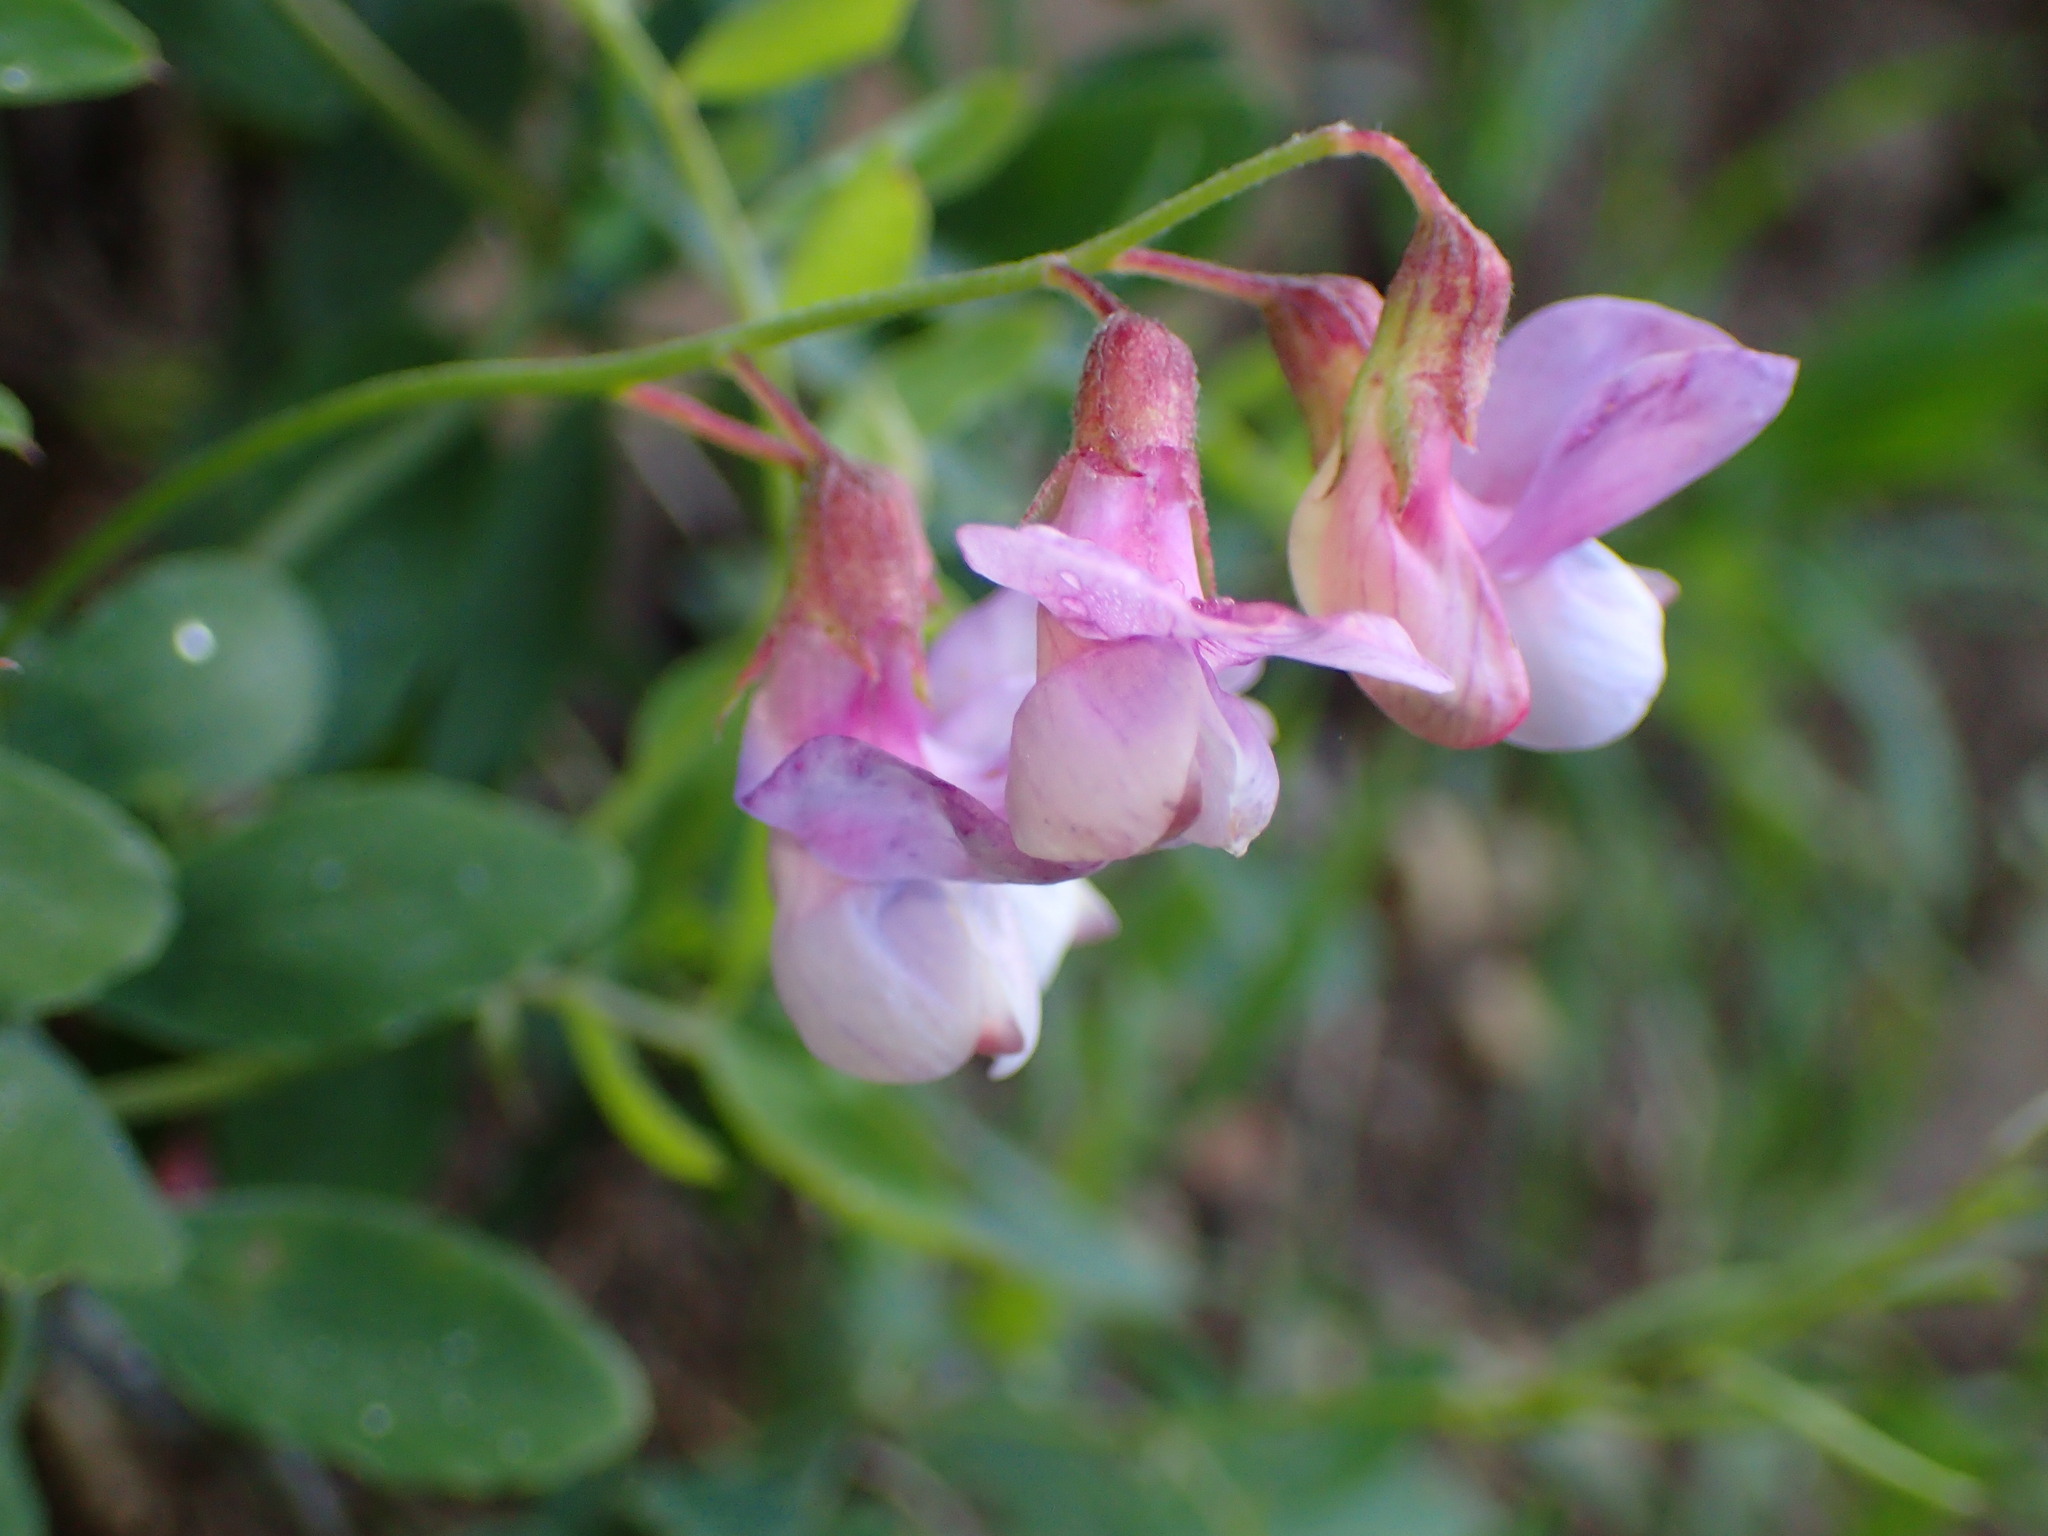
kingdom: Plantae
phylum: Tracheophyta
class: Magnoliopsida
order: Fabales
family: Fabaceae
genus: Lathyrus
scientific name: Lathyrus vestitus
